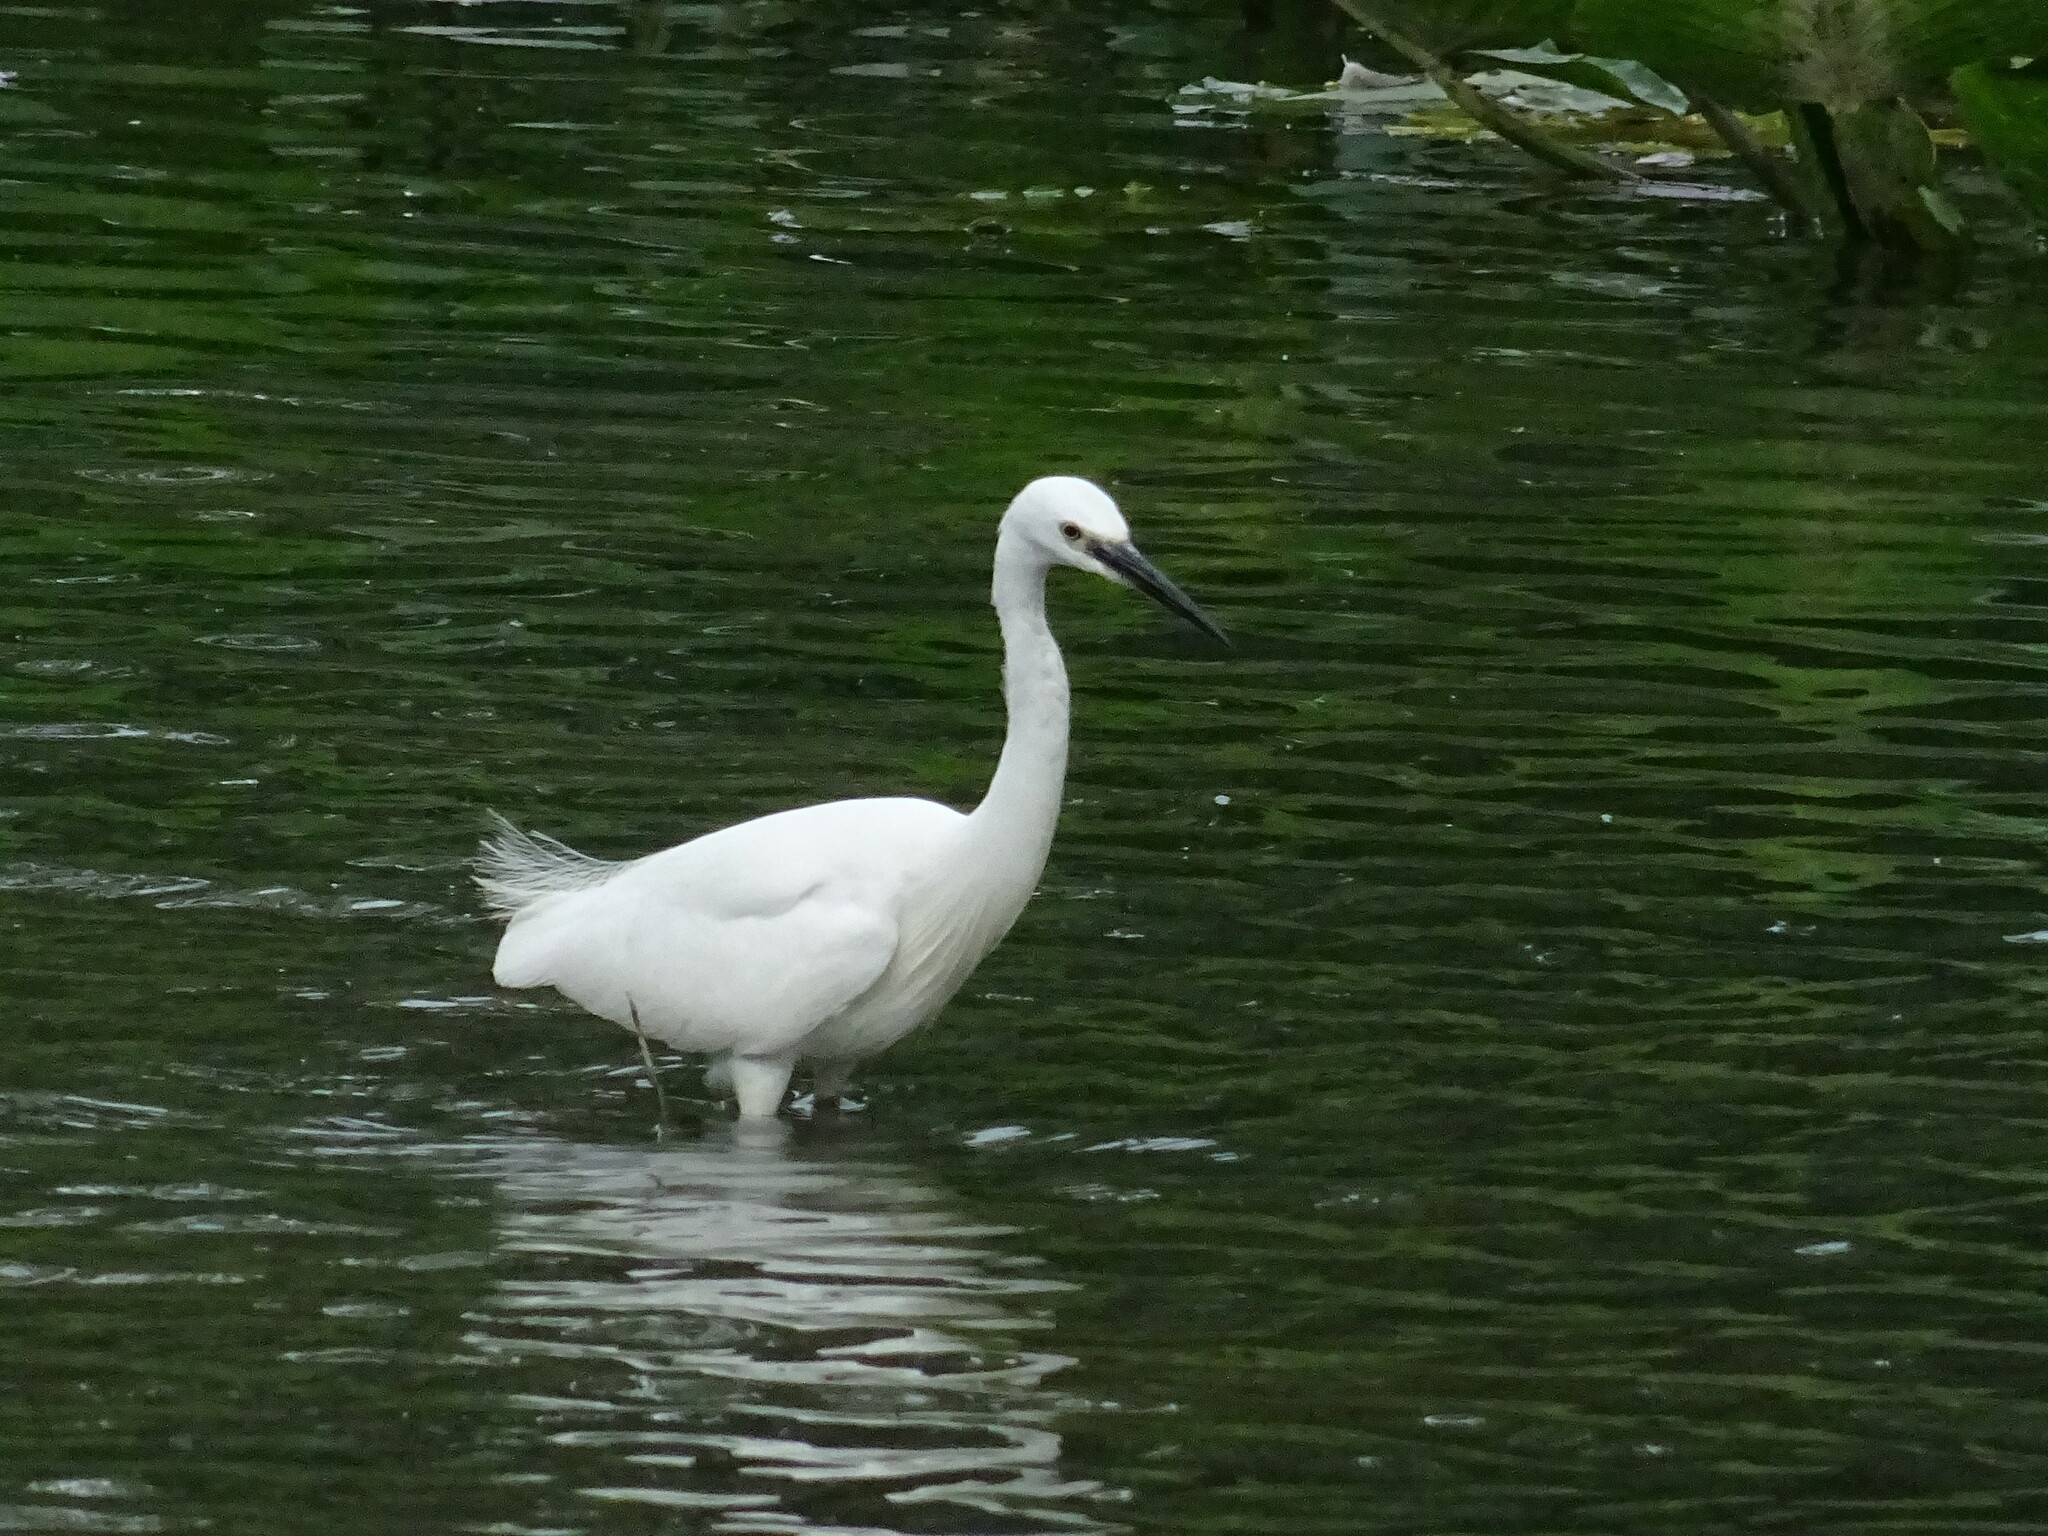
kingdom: Animalia
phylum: Chordata
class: Aves
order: Pelecaniformes
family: Ardeidae
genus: Egretta
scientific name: Egretta garzetta
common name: Little egret
